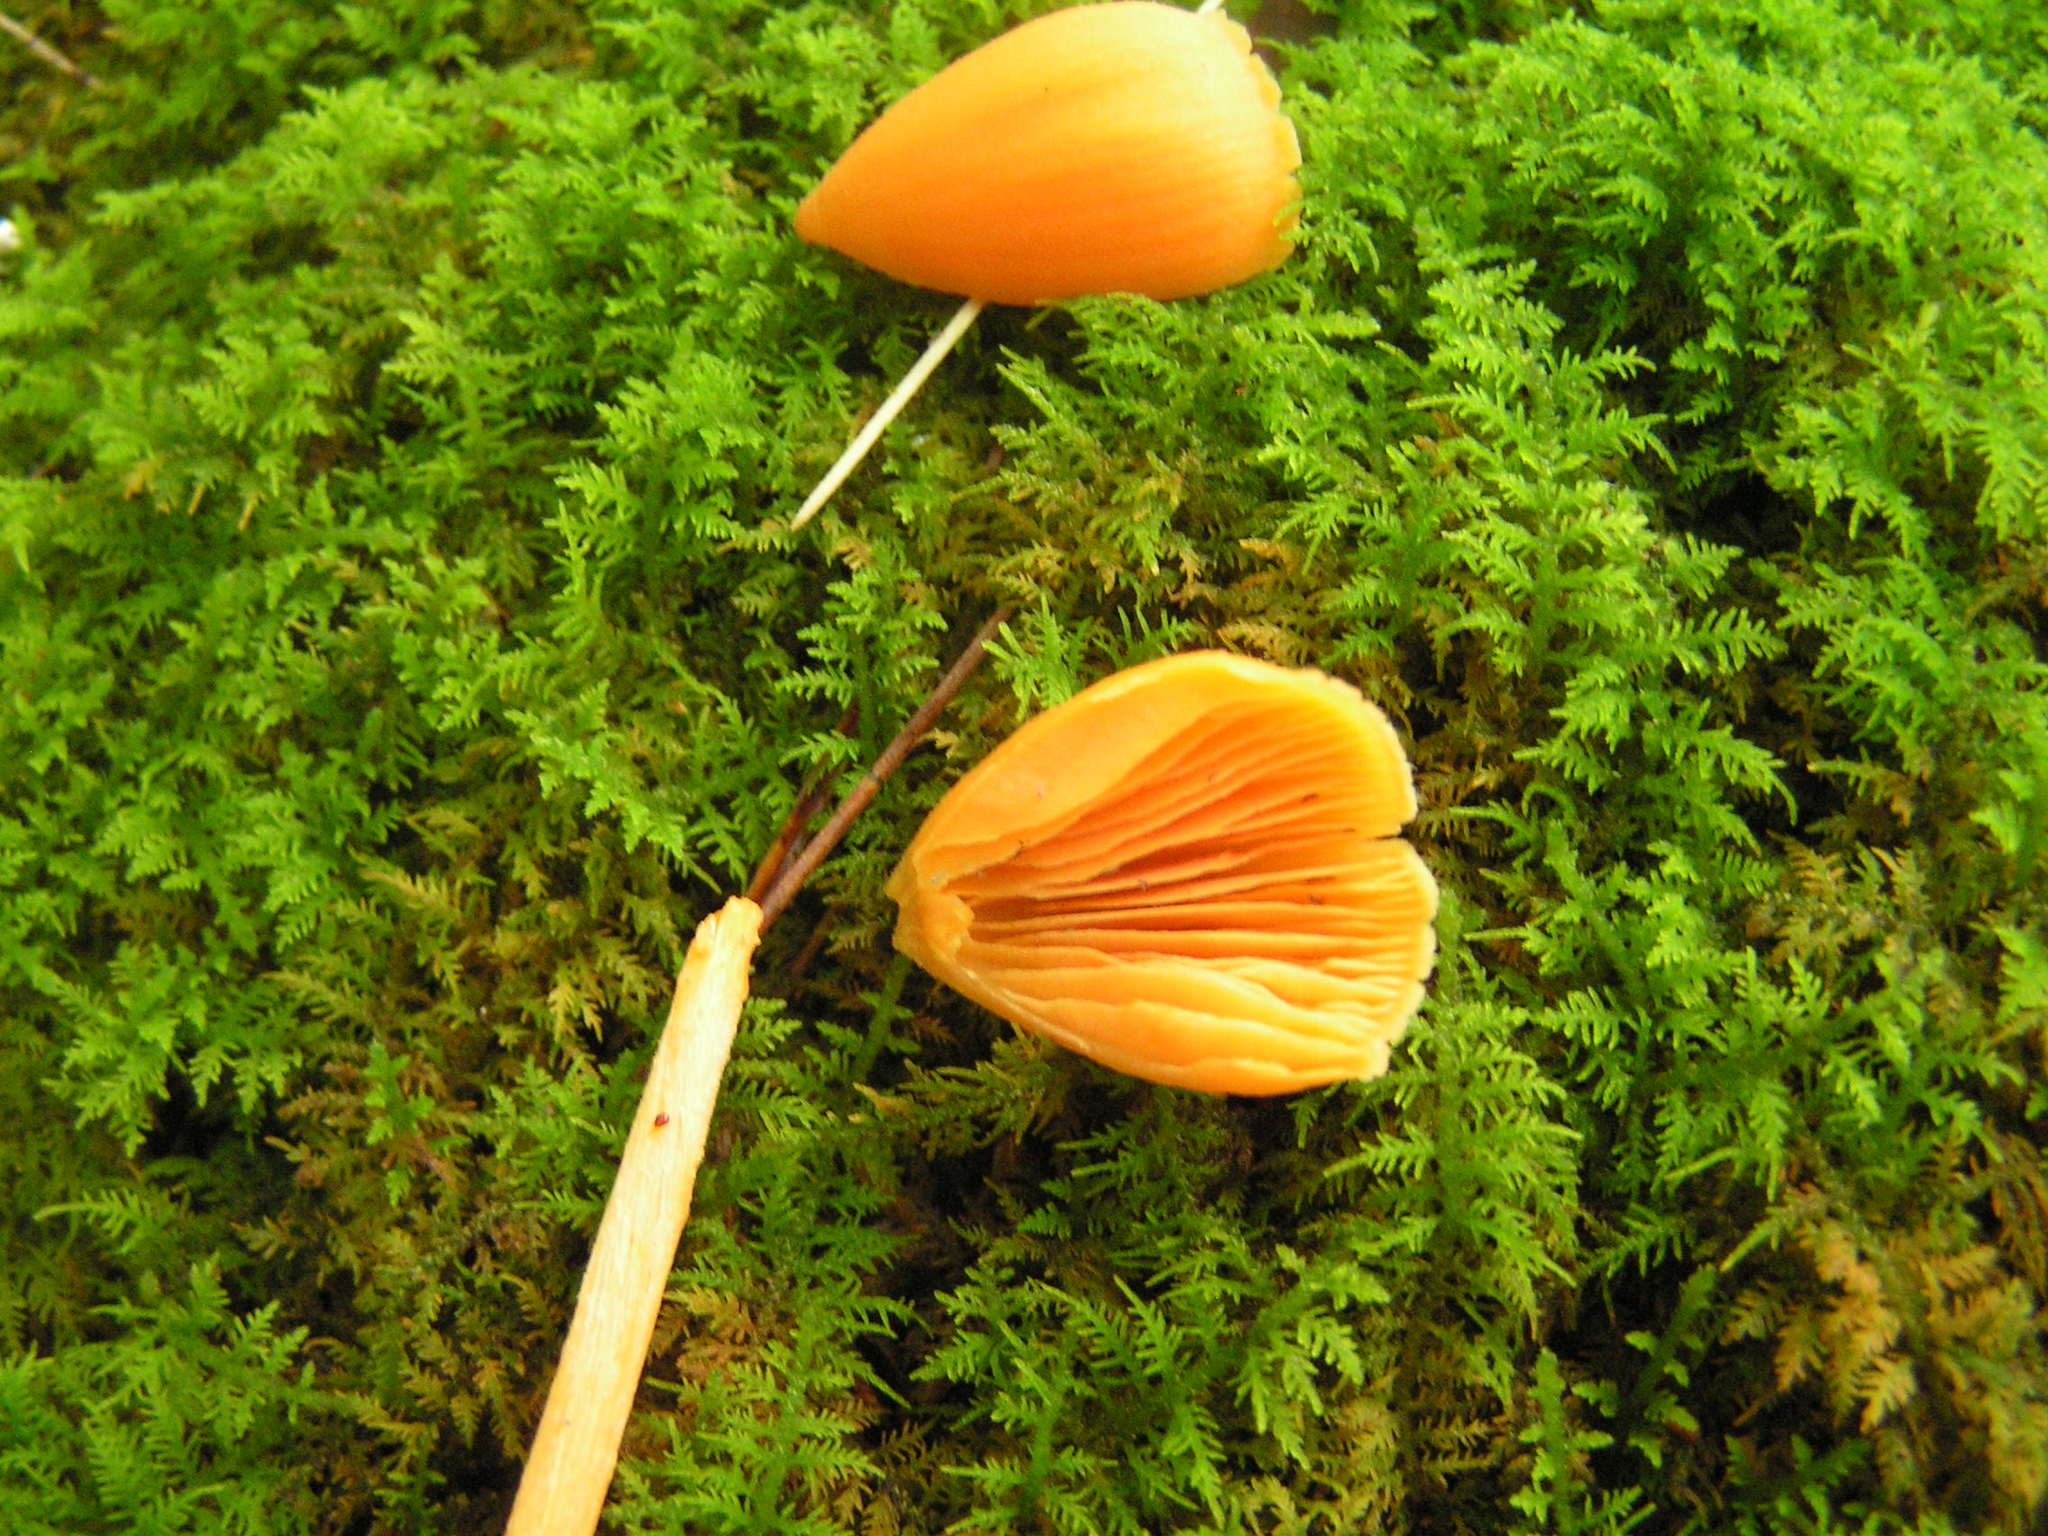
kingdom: Fungi
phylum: Basidiomycota
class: Agaricomycetes
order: Agaricales
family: Entolomataceae
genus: Entoloma
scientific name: Entoloma quadratum
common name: Salmon pinkgill
